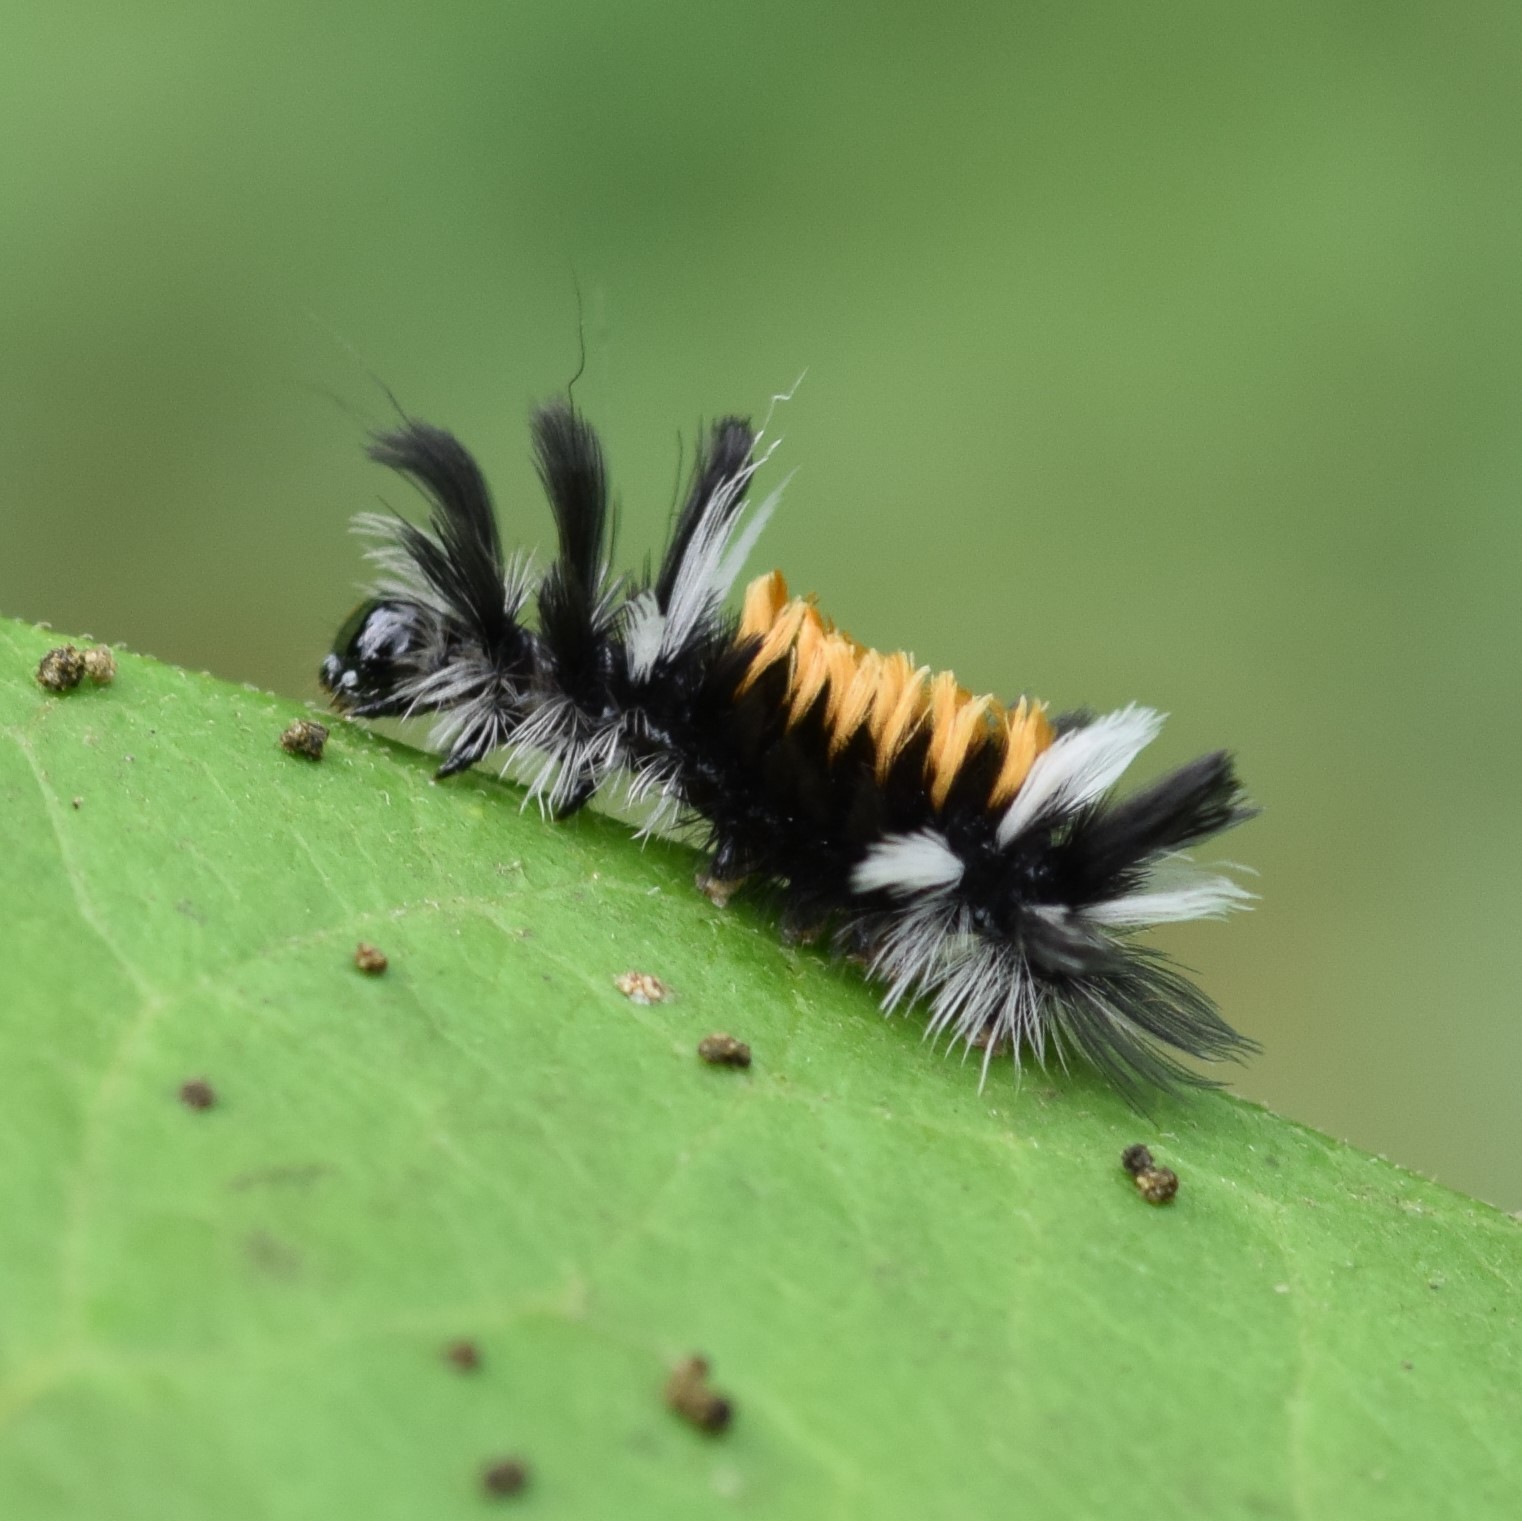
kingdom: Animalia
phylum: Arthropoda
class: Insecta
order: Lepidoptera
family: Erebidae
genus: Euchaetes
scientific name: Euchaetes egle
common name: Milkweed tussock moth
